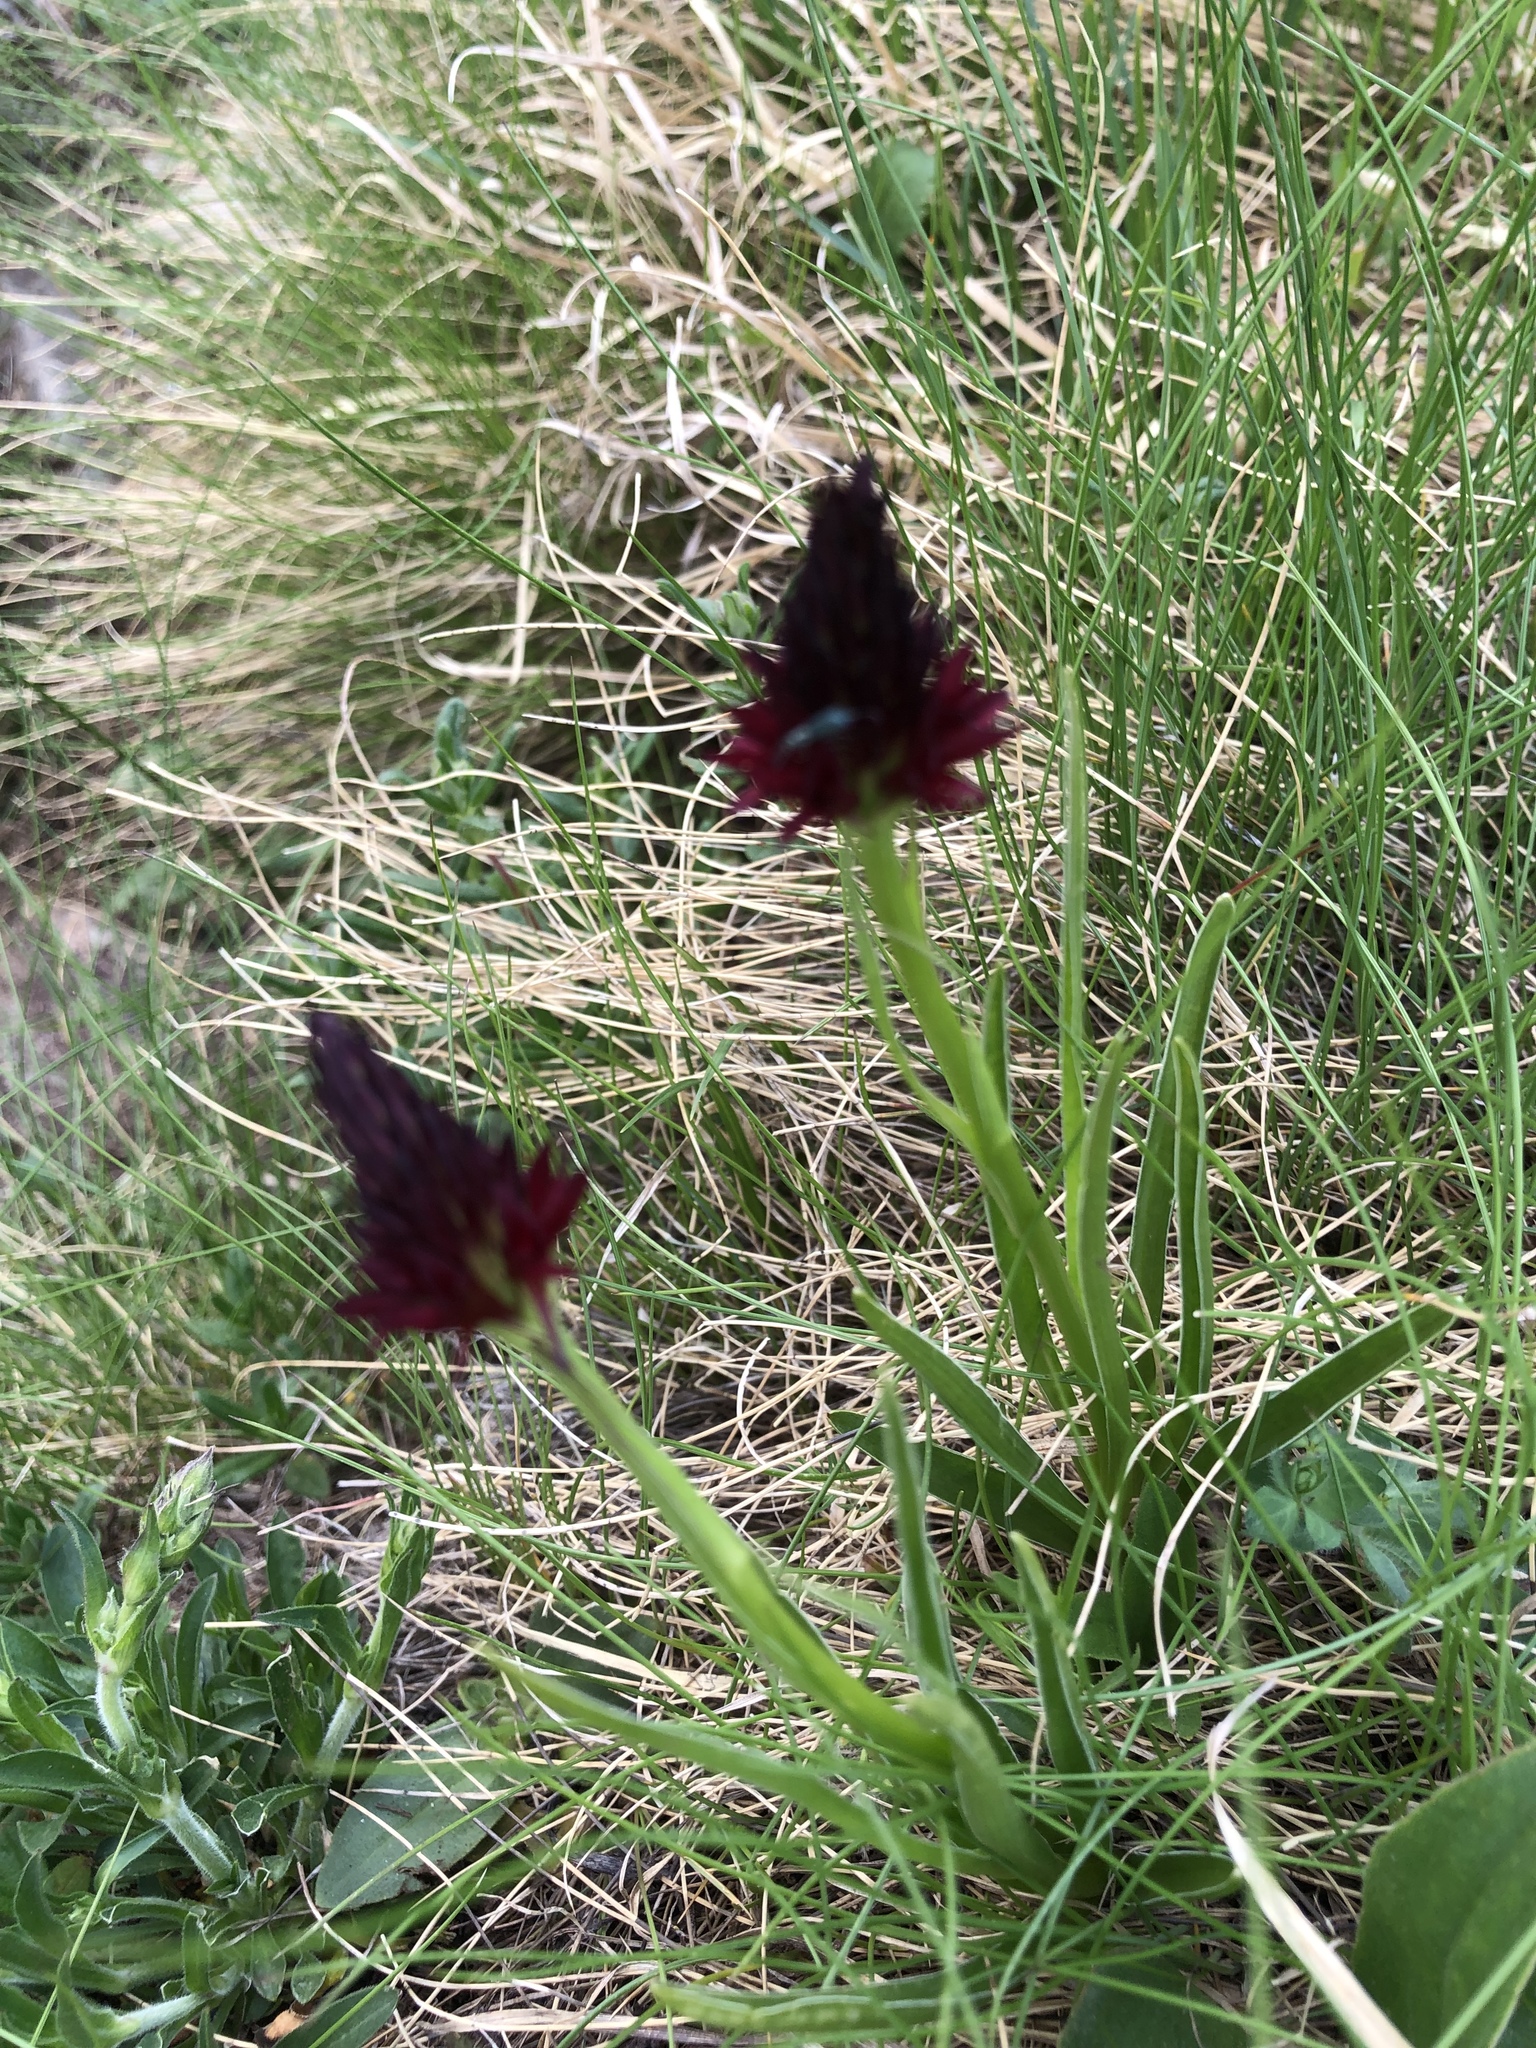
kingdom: Plantae
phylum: Tracheophyta
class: Liliopsida
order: Asparagales
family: Orchidaceae
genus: Gymnadenia
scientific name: Gymnadenia rhellicani
